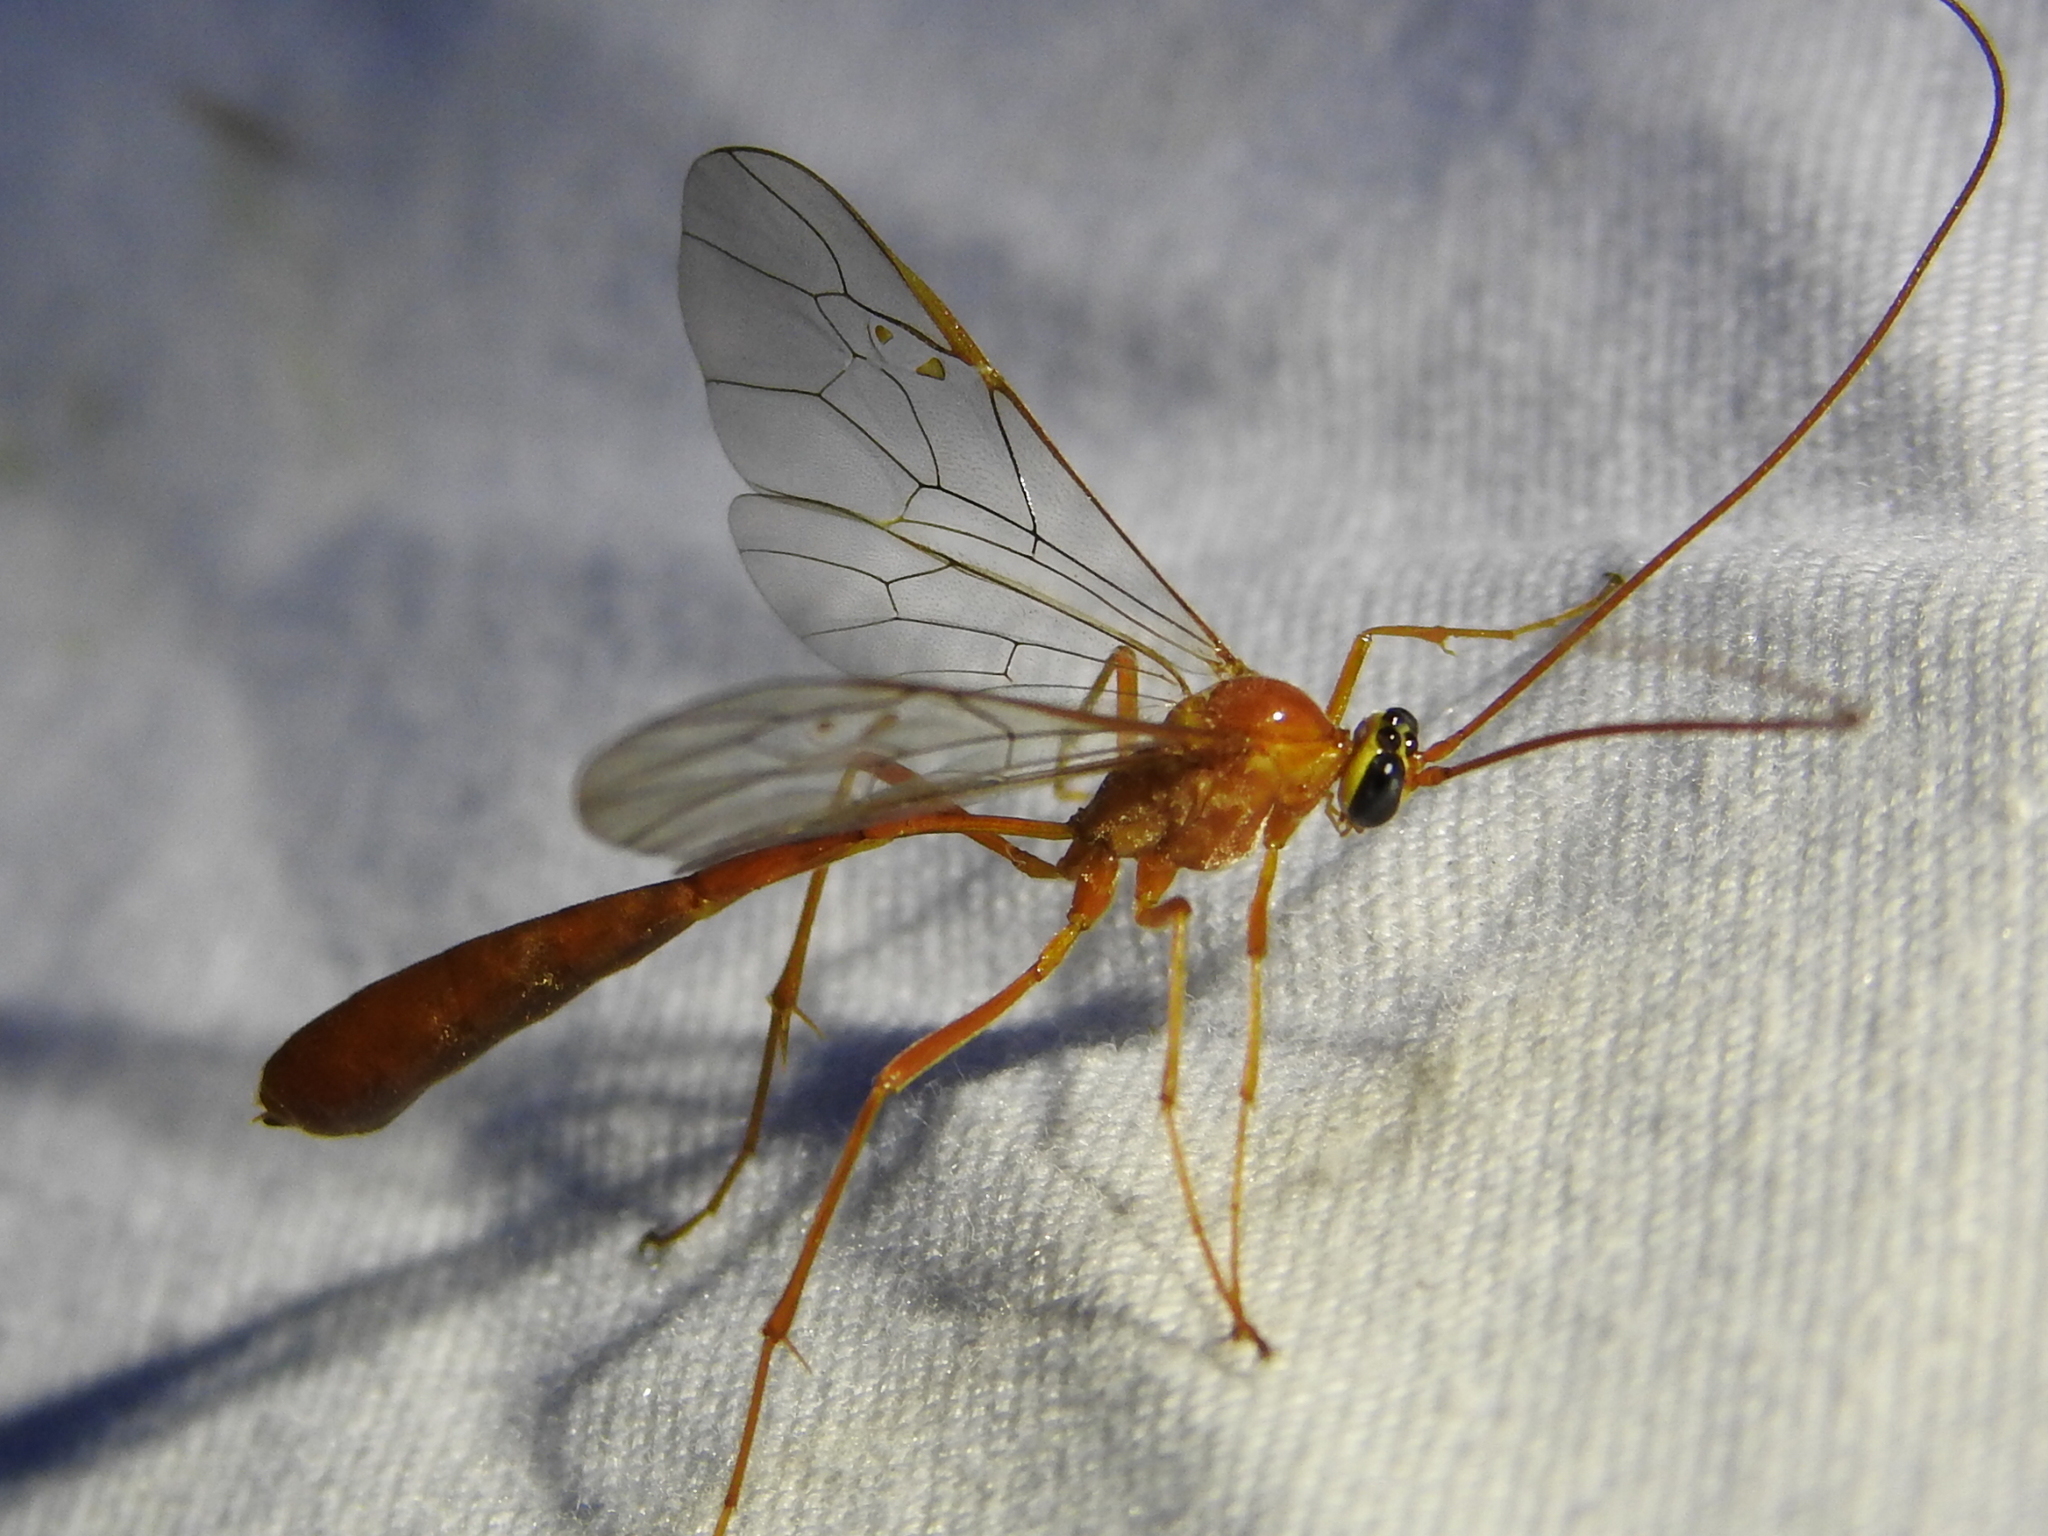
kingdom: Animalia
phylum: Arthropoda
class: Insecta
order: Hymenoptera
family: Ichneumonidae
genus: Enicospilus
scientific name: Enicospilus purgatus
